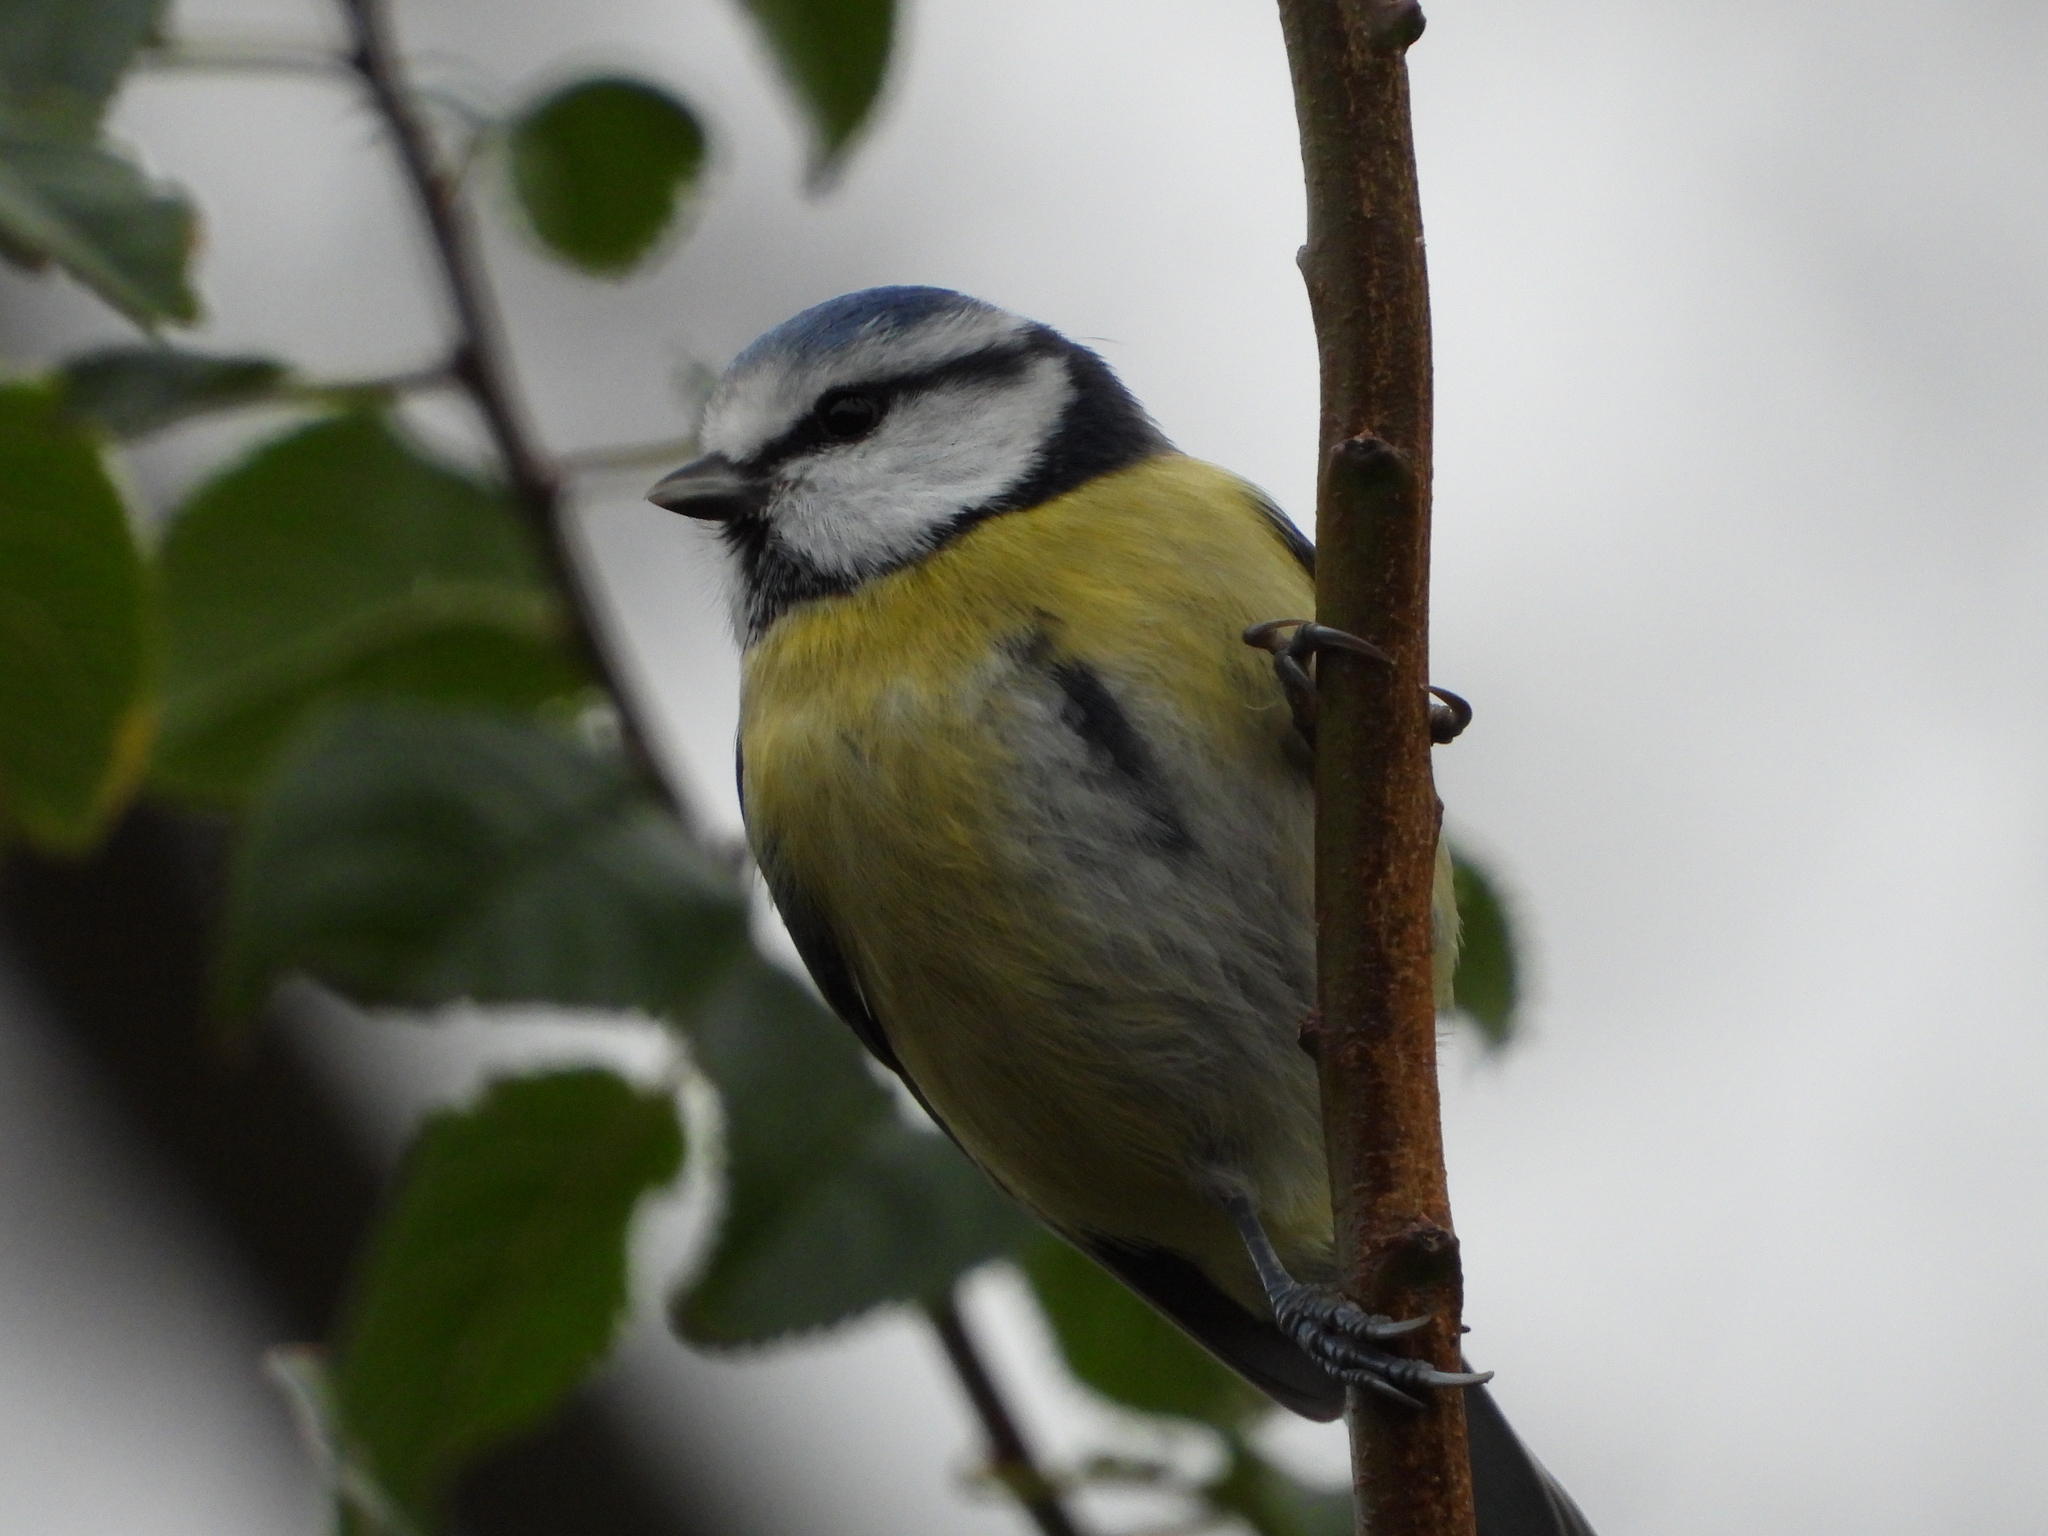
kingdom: Animalia
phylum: Chordata
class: Aves
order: Passeriformes
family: Paridae
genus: Cyanistes
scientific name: Cyanistes caeruleus
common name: Eurasian blue tit
